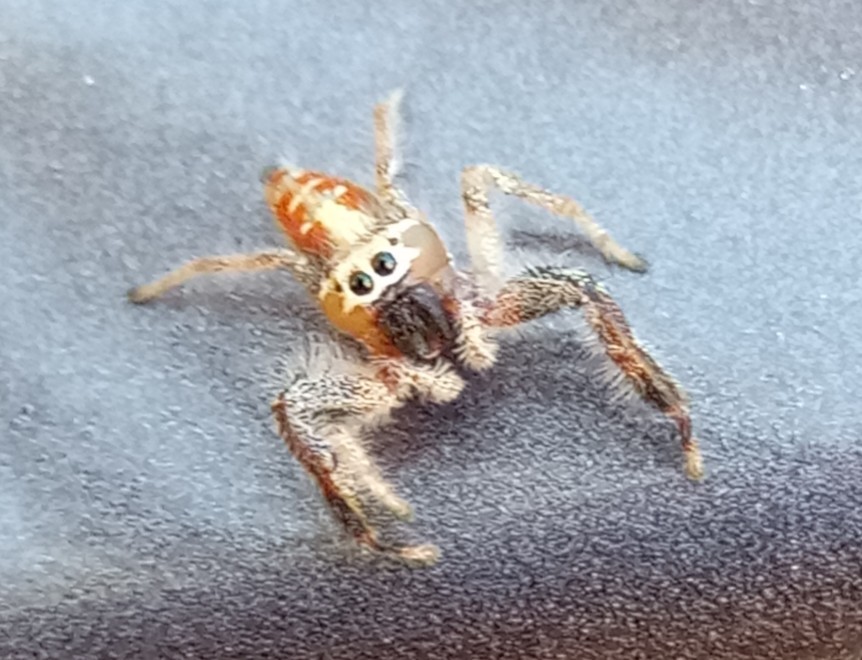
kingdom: Animalia
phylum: Arthropoda
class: Arachnida
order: Araneae
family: Salticidae
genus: Thyene
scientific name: Thyene imperialis
